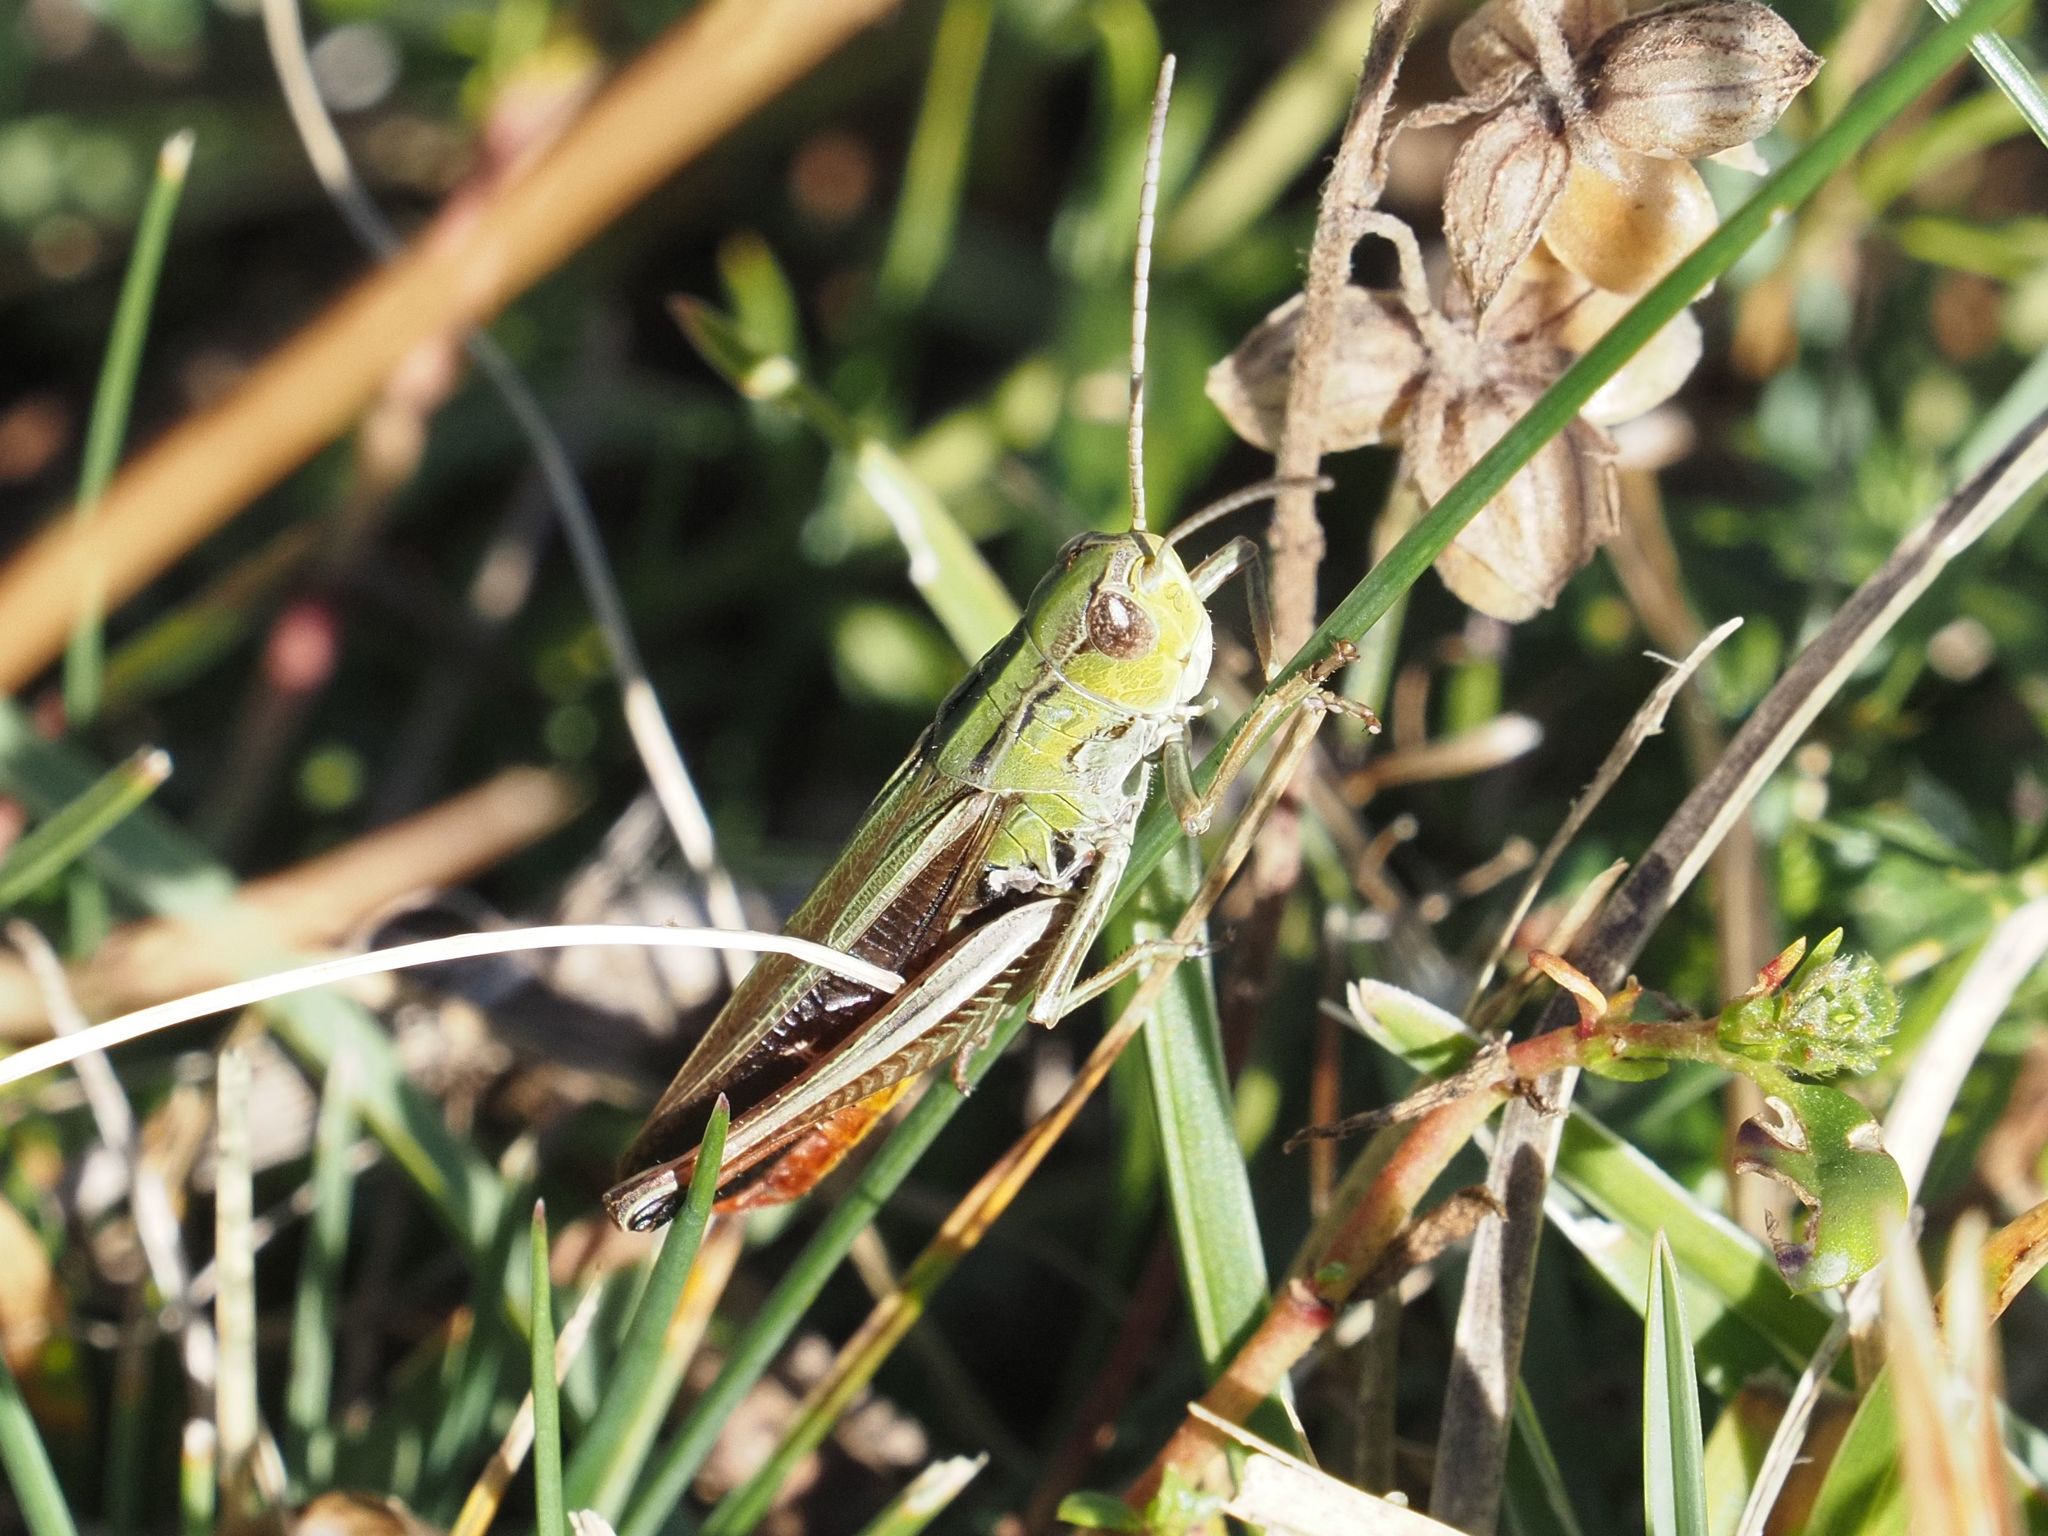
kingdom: Animalia
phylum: Arthropoda
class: Insecta
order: Orthoptera
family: Acrididae
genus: Stenobothrus
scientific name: Stenobothrus lineatus
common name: Stripe-winged grasshopper
